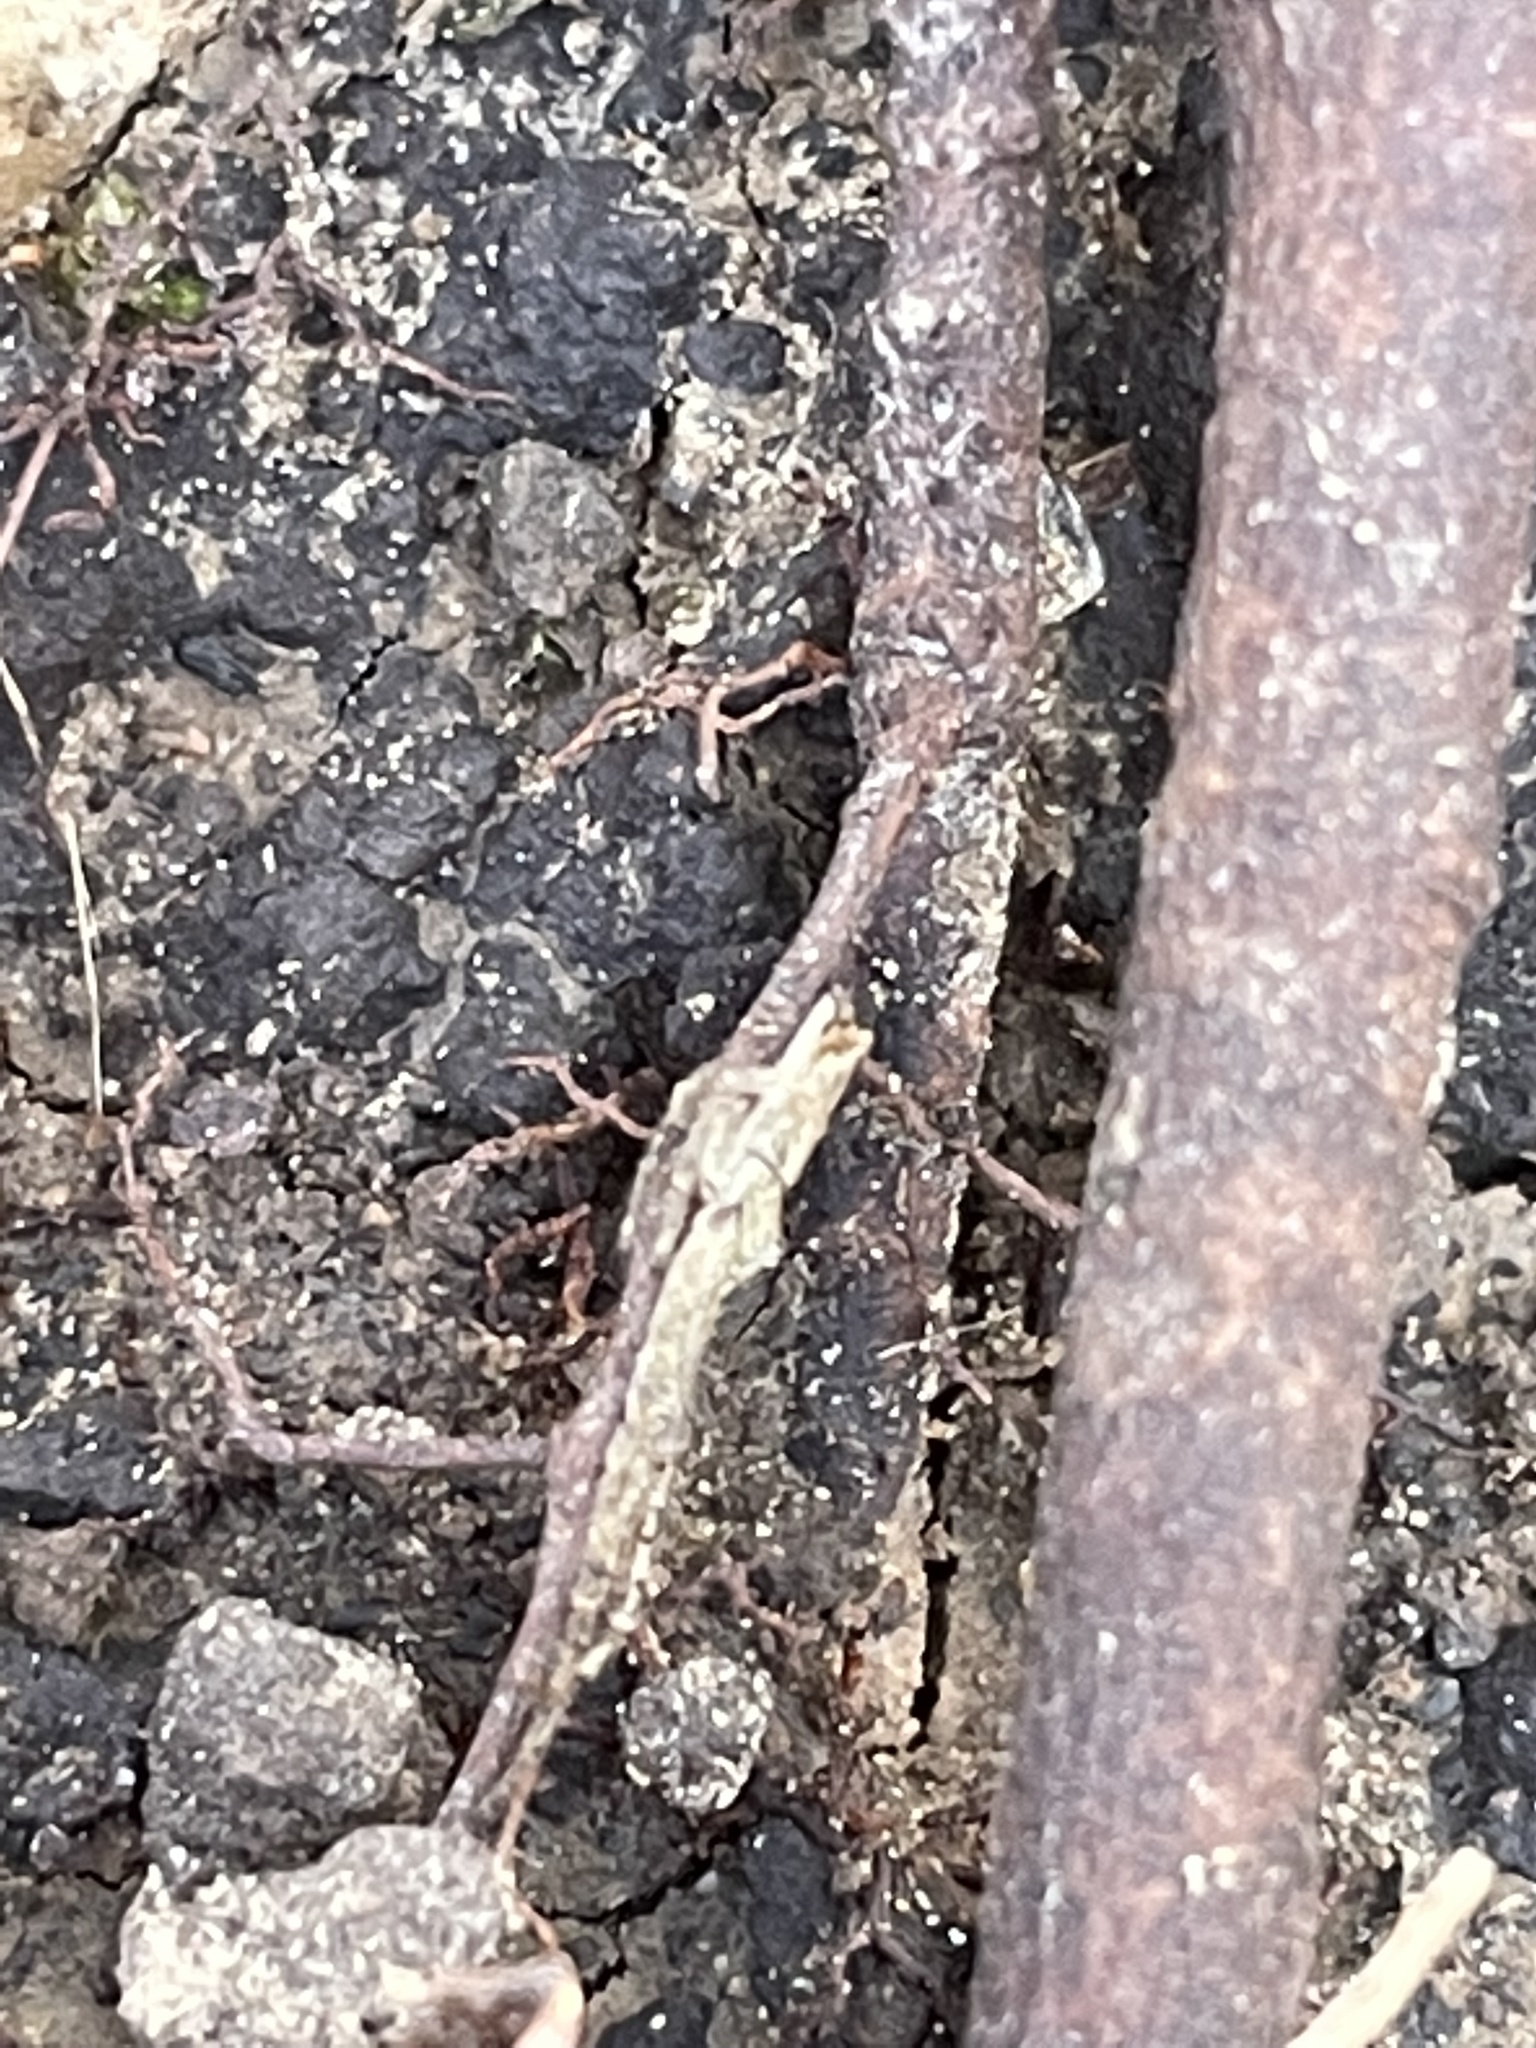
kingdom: Animalia
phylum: Arthropoda
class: Arachnida
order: Araneae
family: Thomisidae
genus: Tmarus
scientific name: Tmarus angulatus
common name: Tuberculated crab spider
